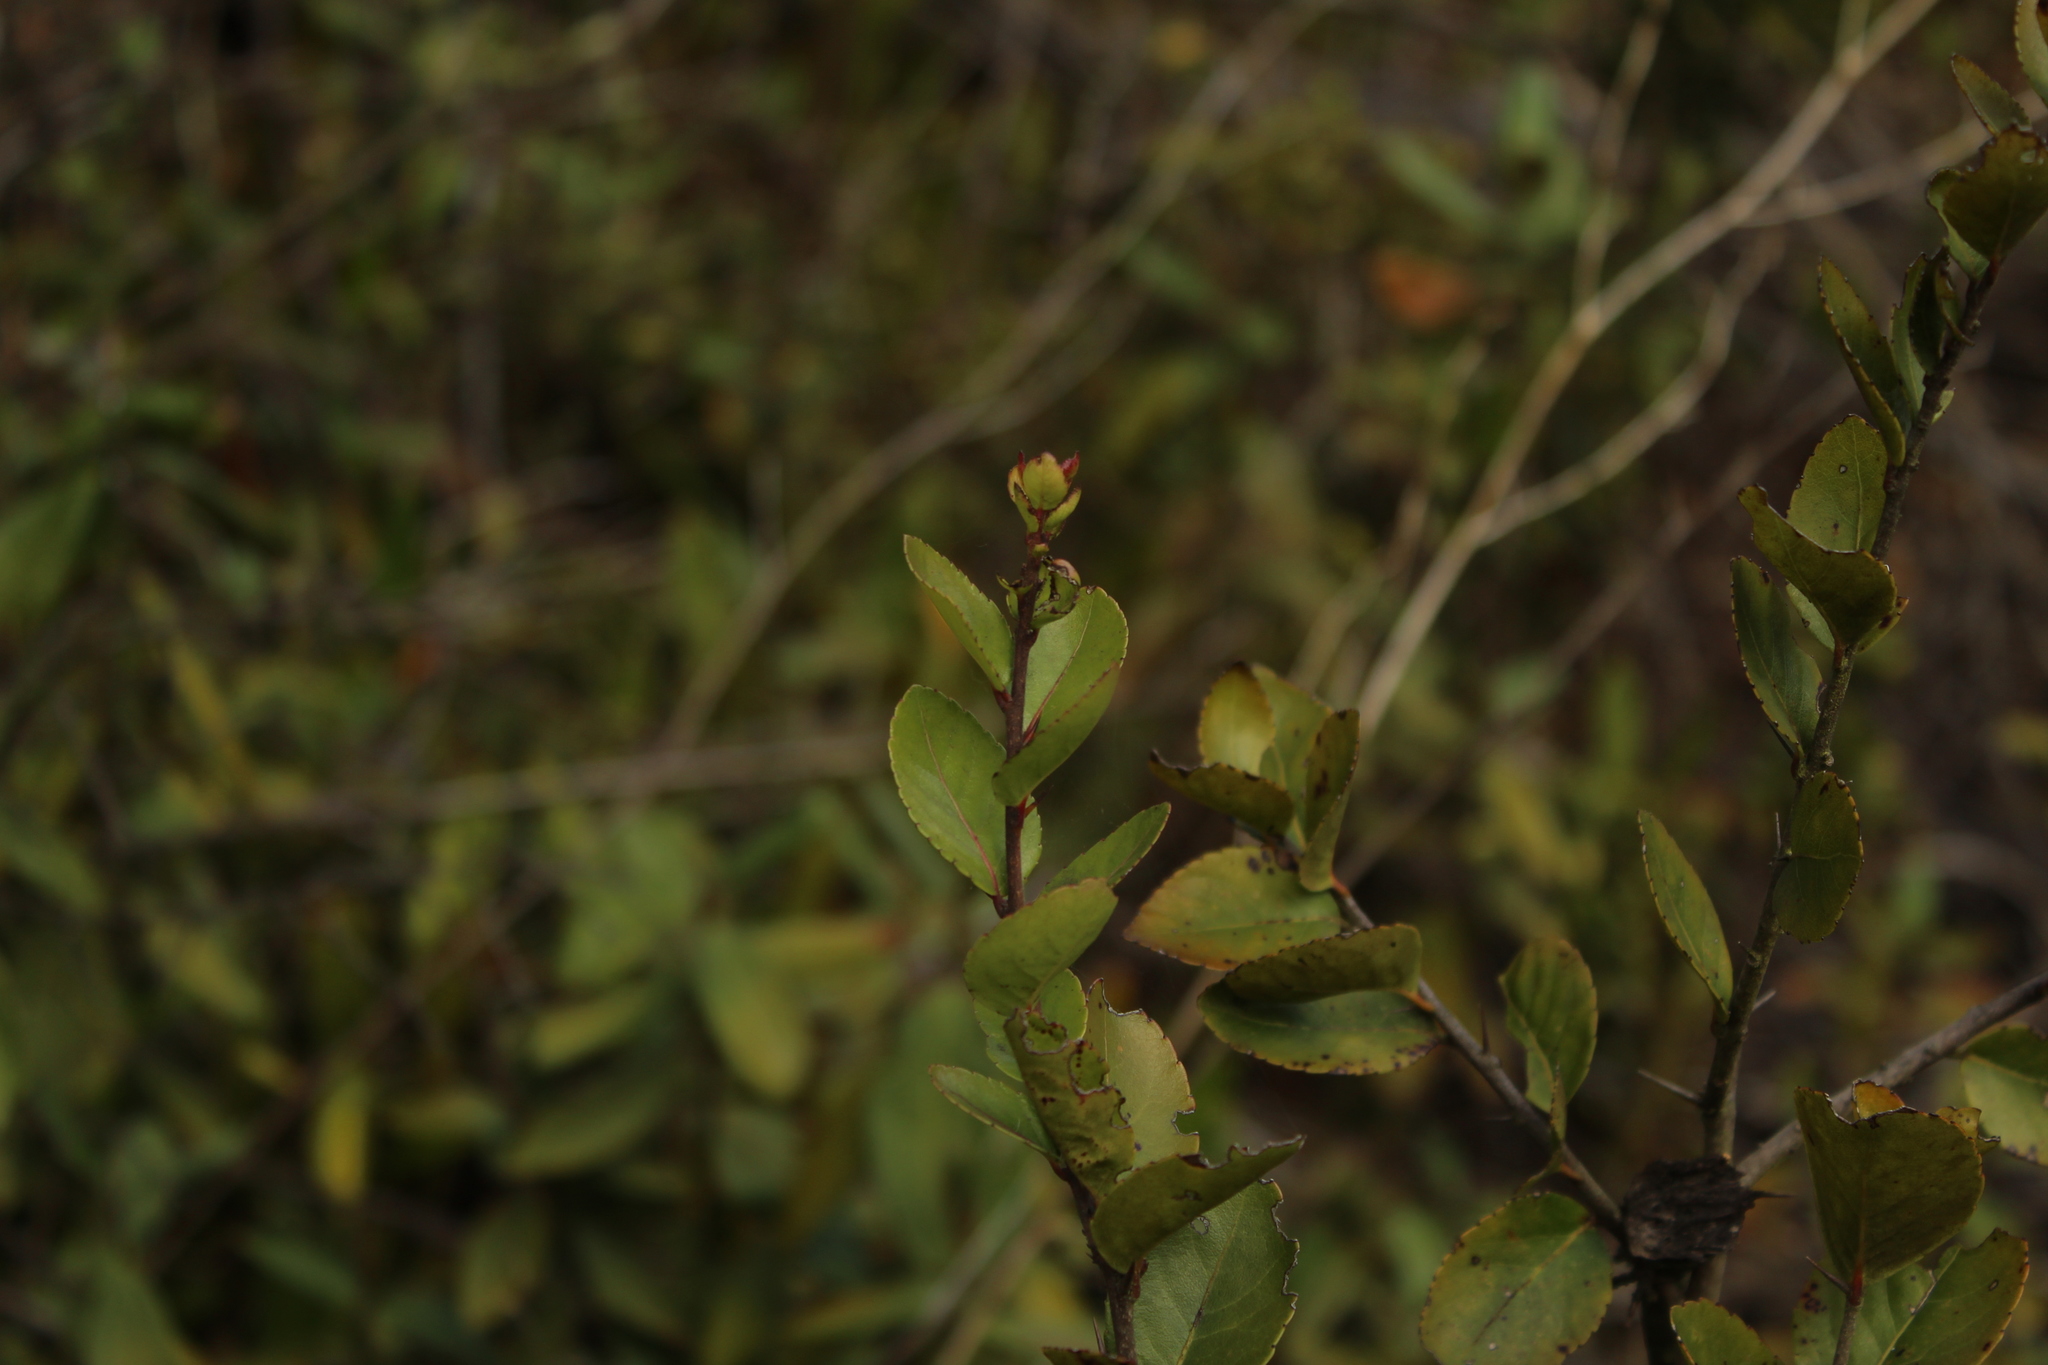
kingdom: Plantae
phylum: Tracheophyta
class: Magnoliopsida
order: Malpighiales
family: Salicaceae
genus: Xylosma
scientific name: Xylosma spiculifera
